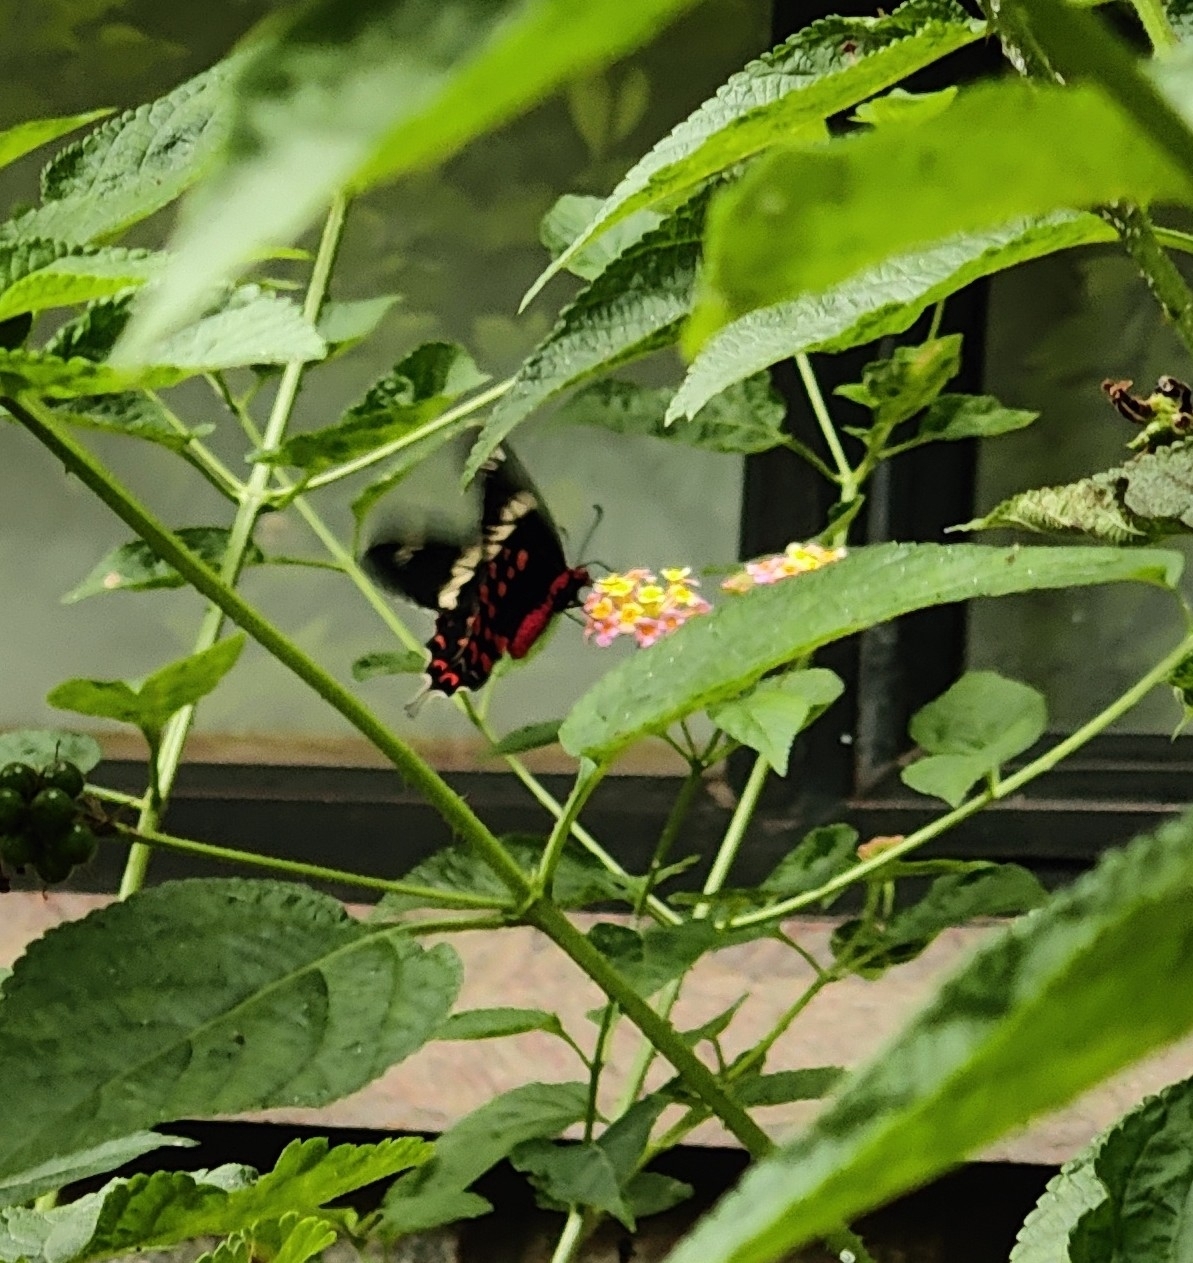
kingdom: Animalia
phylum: Arthropoda
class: Insecta
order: Lepidoptera
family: Papilionidae
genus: Pachliopta
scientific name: Pachliopta hector
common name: Crimson rose
